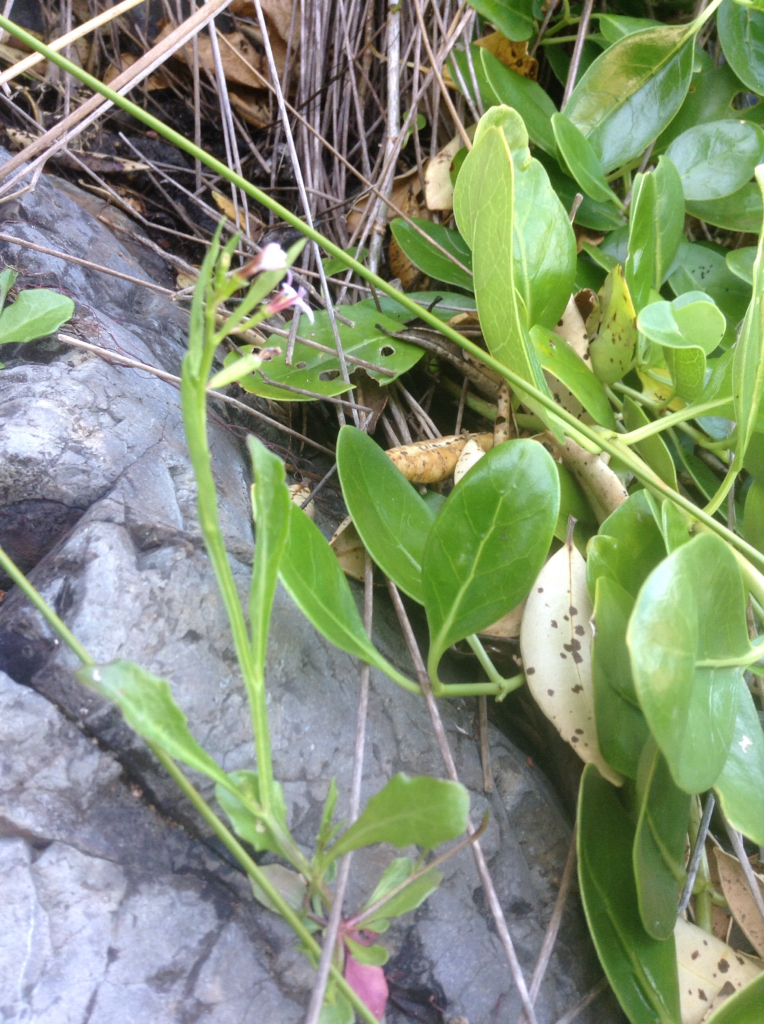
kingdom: Plantae
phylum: Tracheophyta
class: Magnoliopsida
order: Asterales
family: Campanulaceae
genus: Lobelia
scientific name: Lobelia anceps
